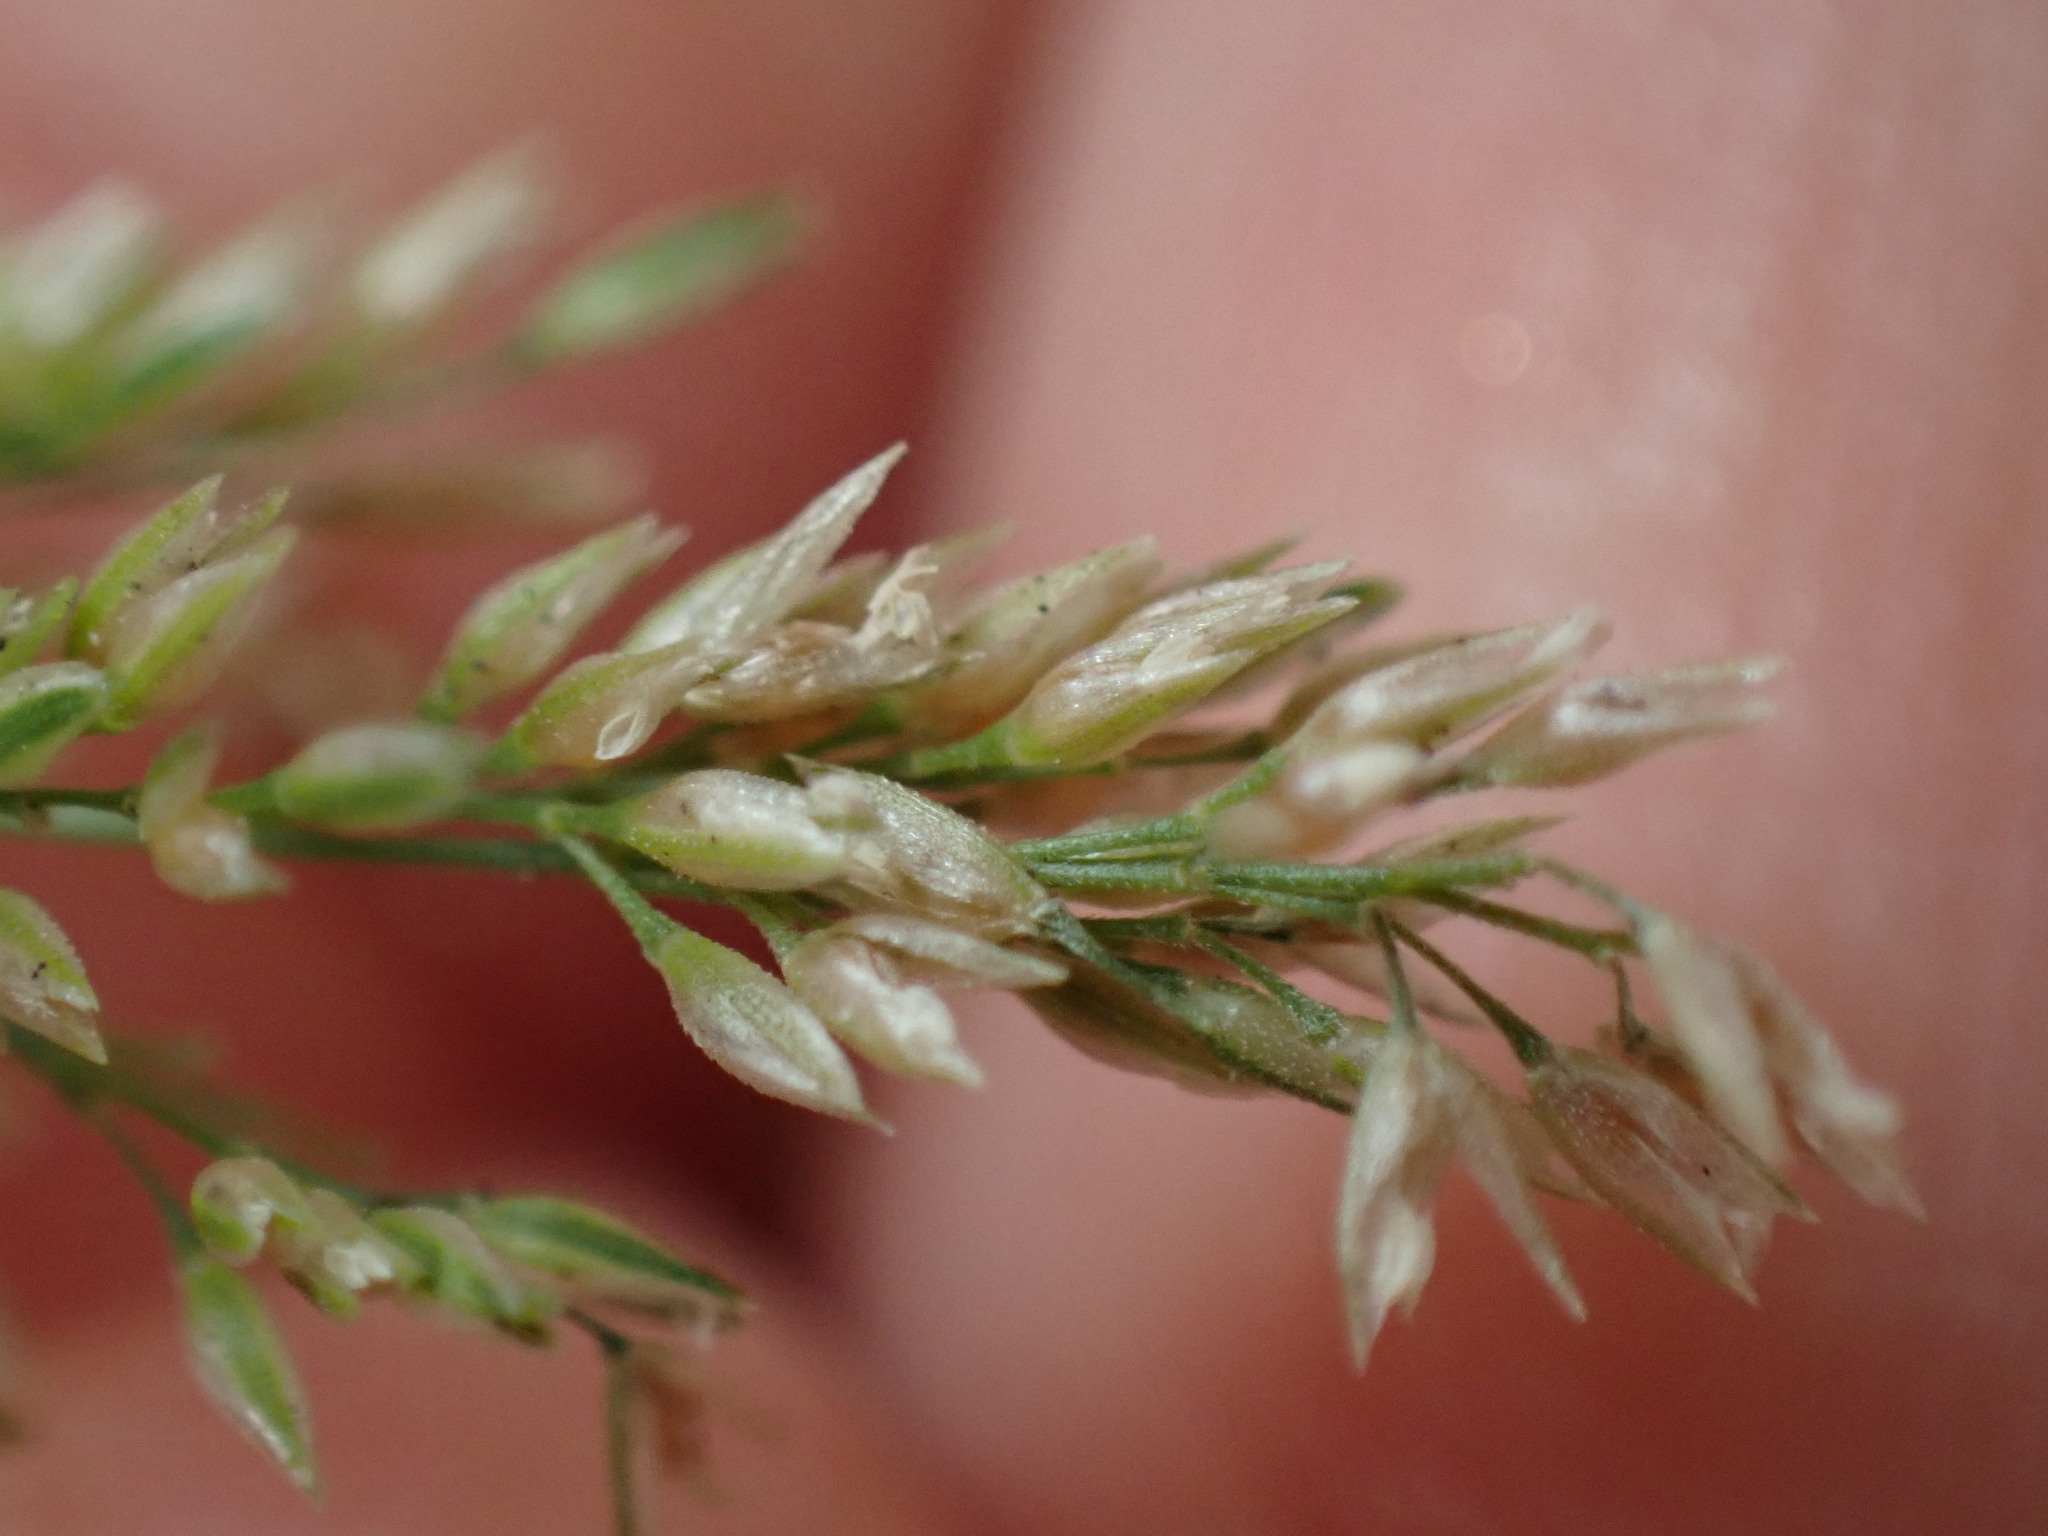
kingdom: Plantae
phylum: Tracheophyta
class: Liliopsida
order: Poales
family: Poaceae
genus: Polypogon
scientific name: Polypogon viridis
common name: Water bent
